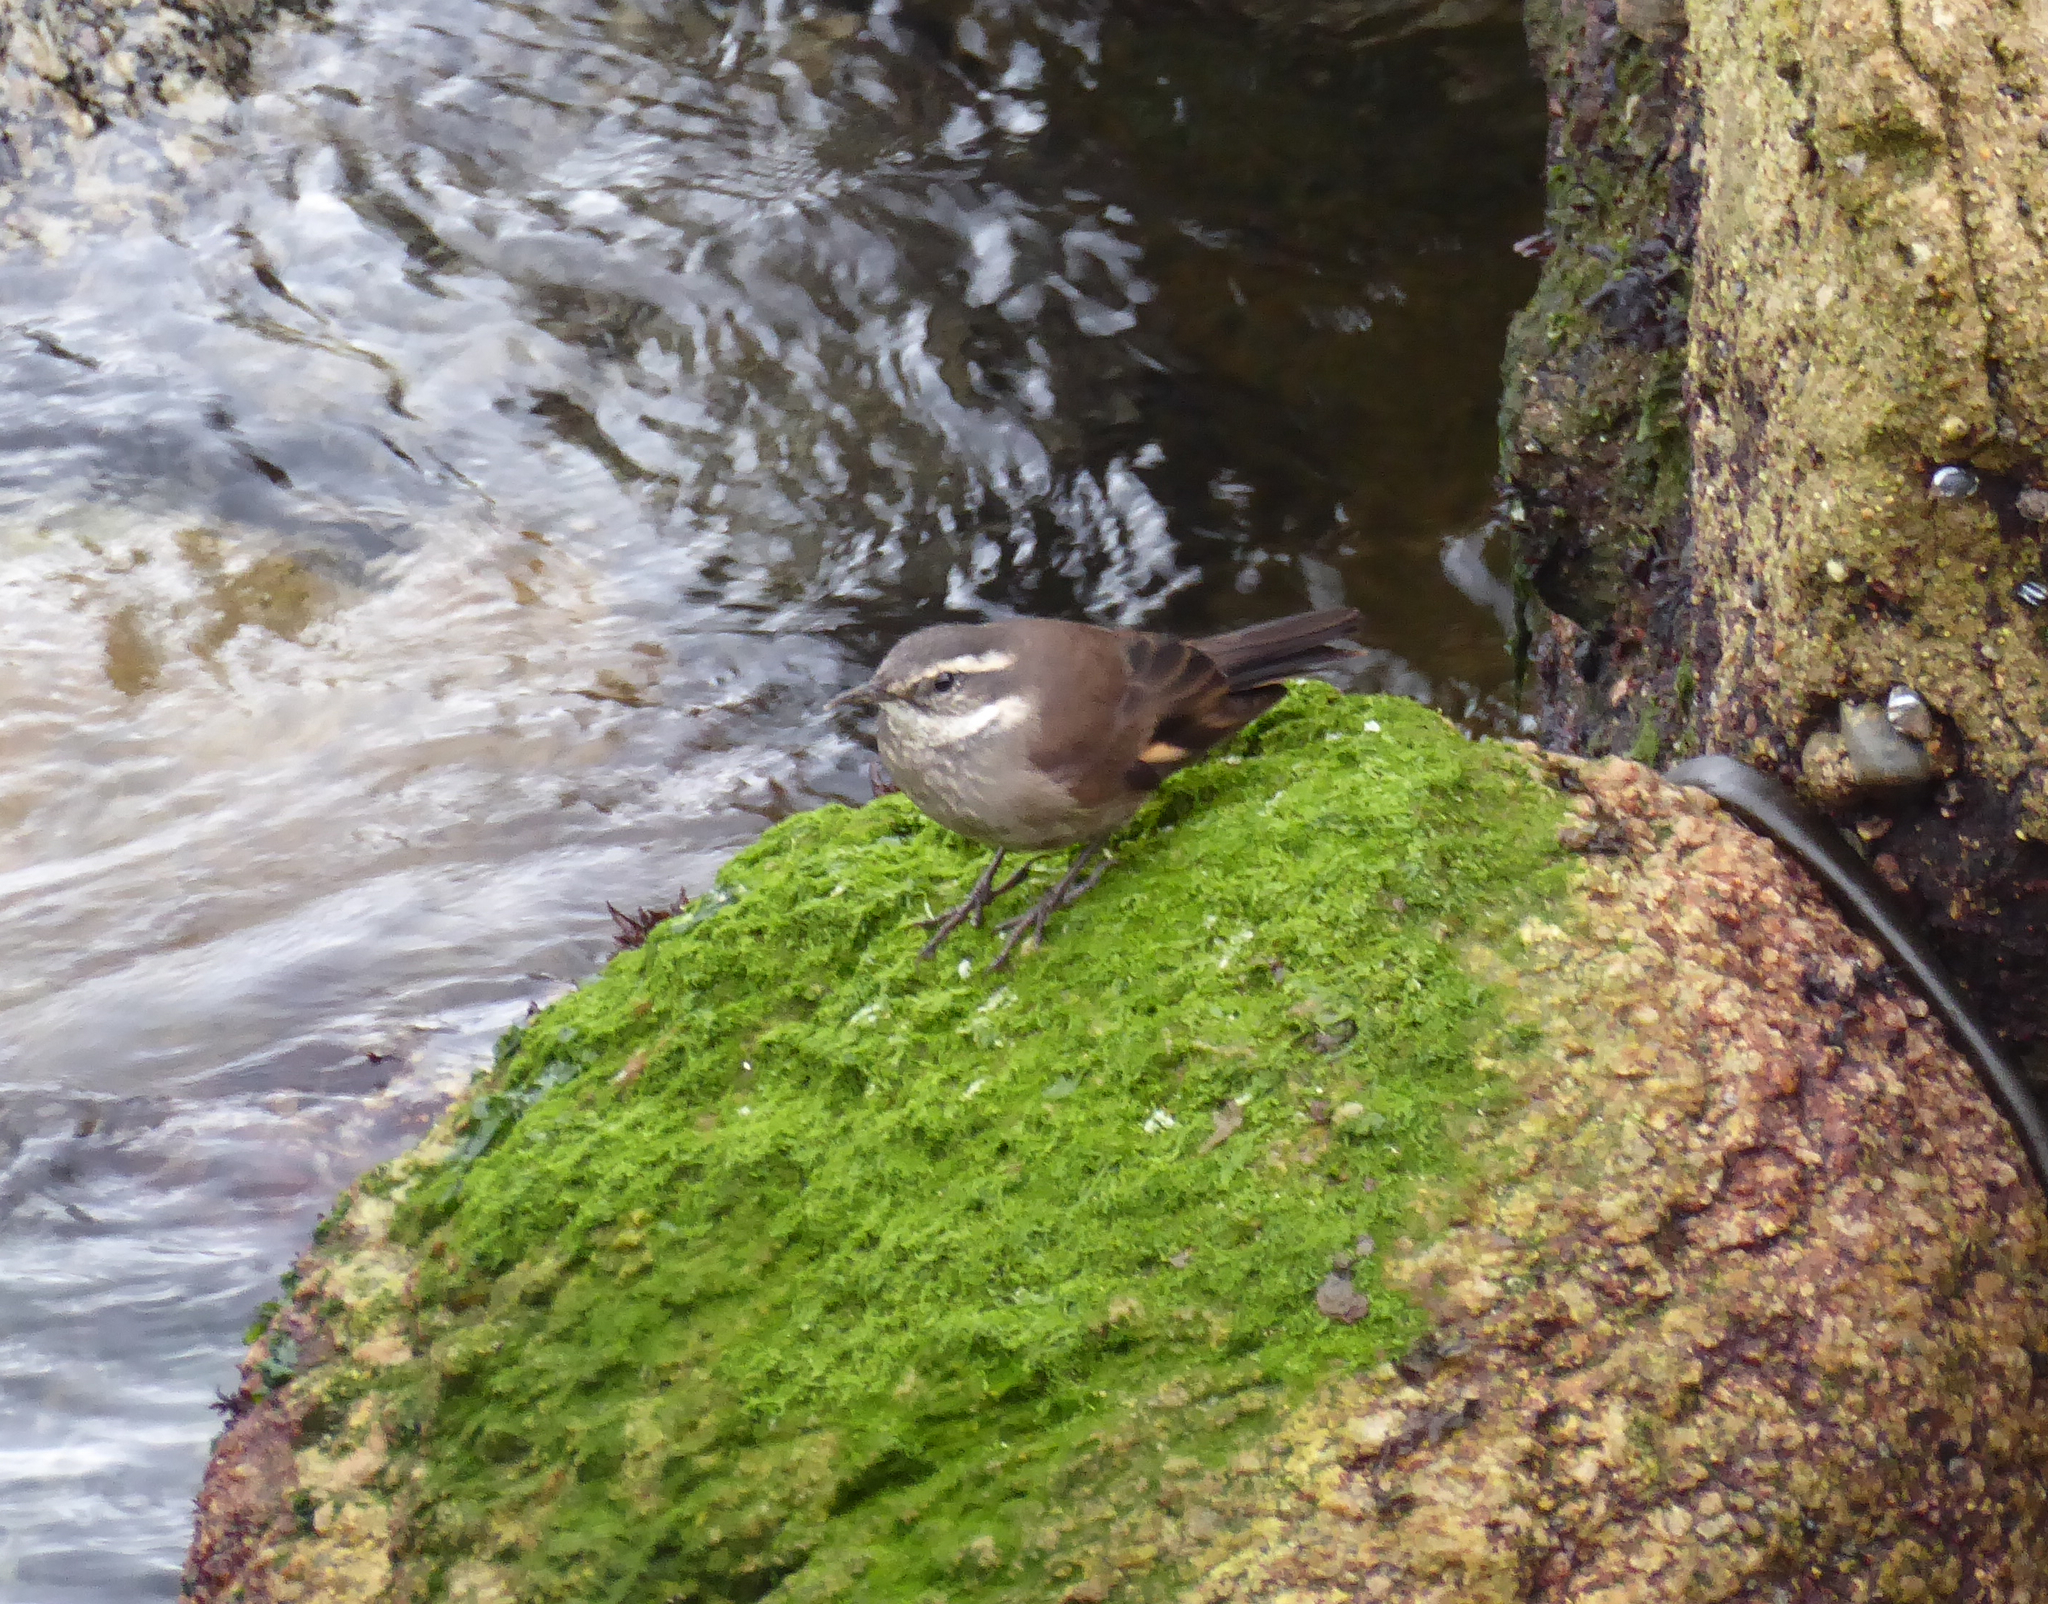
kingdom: Animalia
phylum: Chordata
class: Aves
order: Passeriformes
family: Furnariidae
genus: Cinclodes
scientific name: Cinclodes oustaleti
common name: Grey-flanked cinclodes
